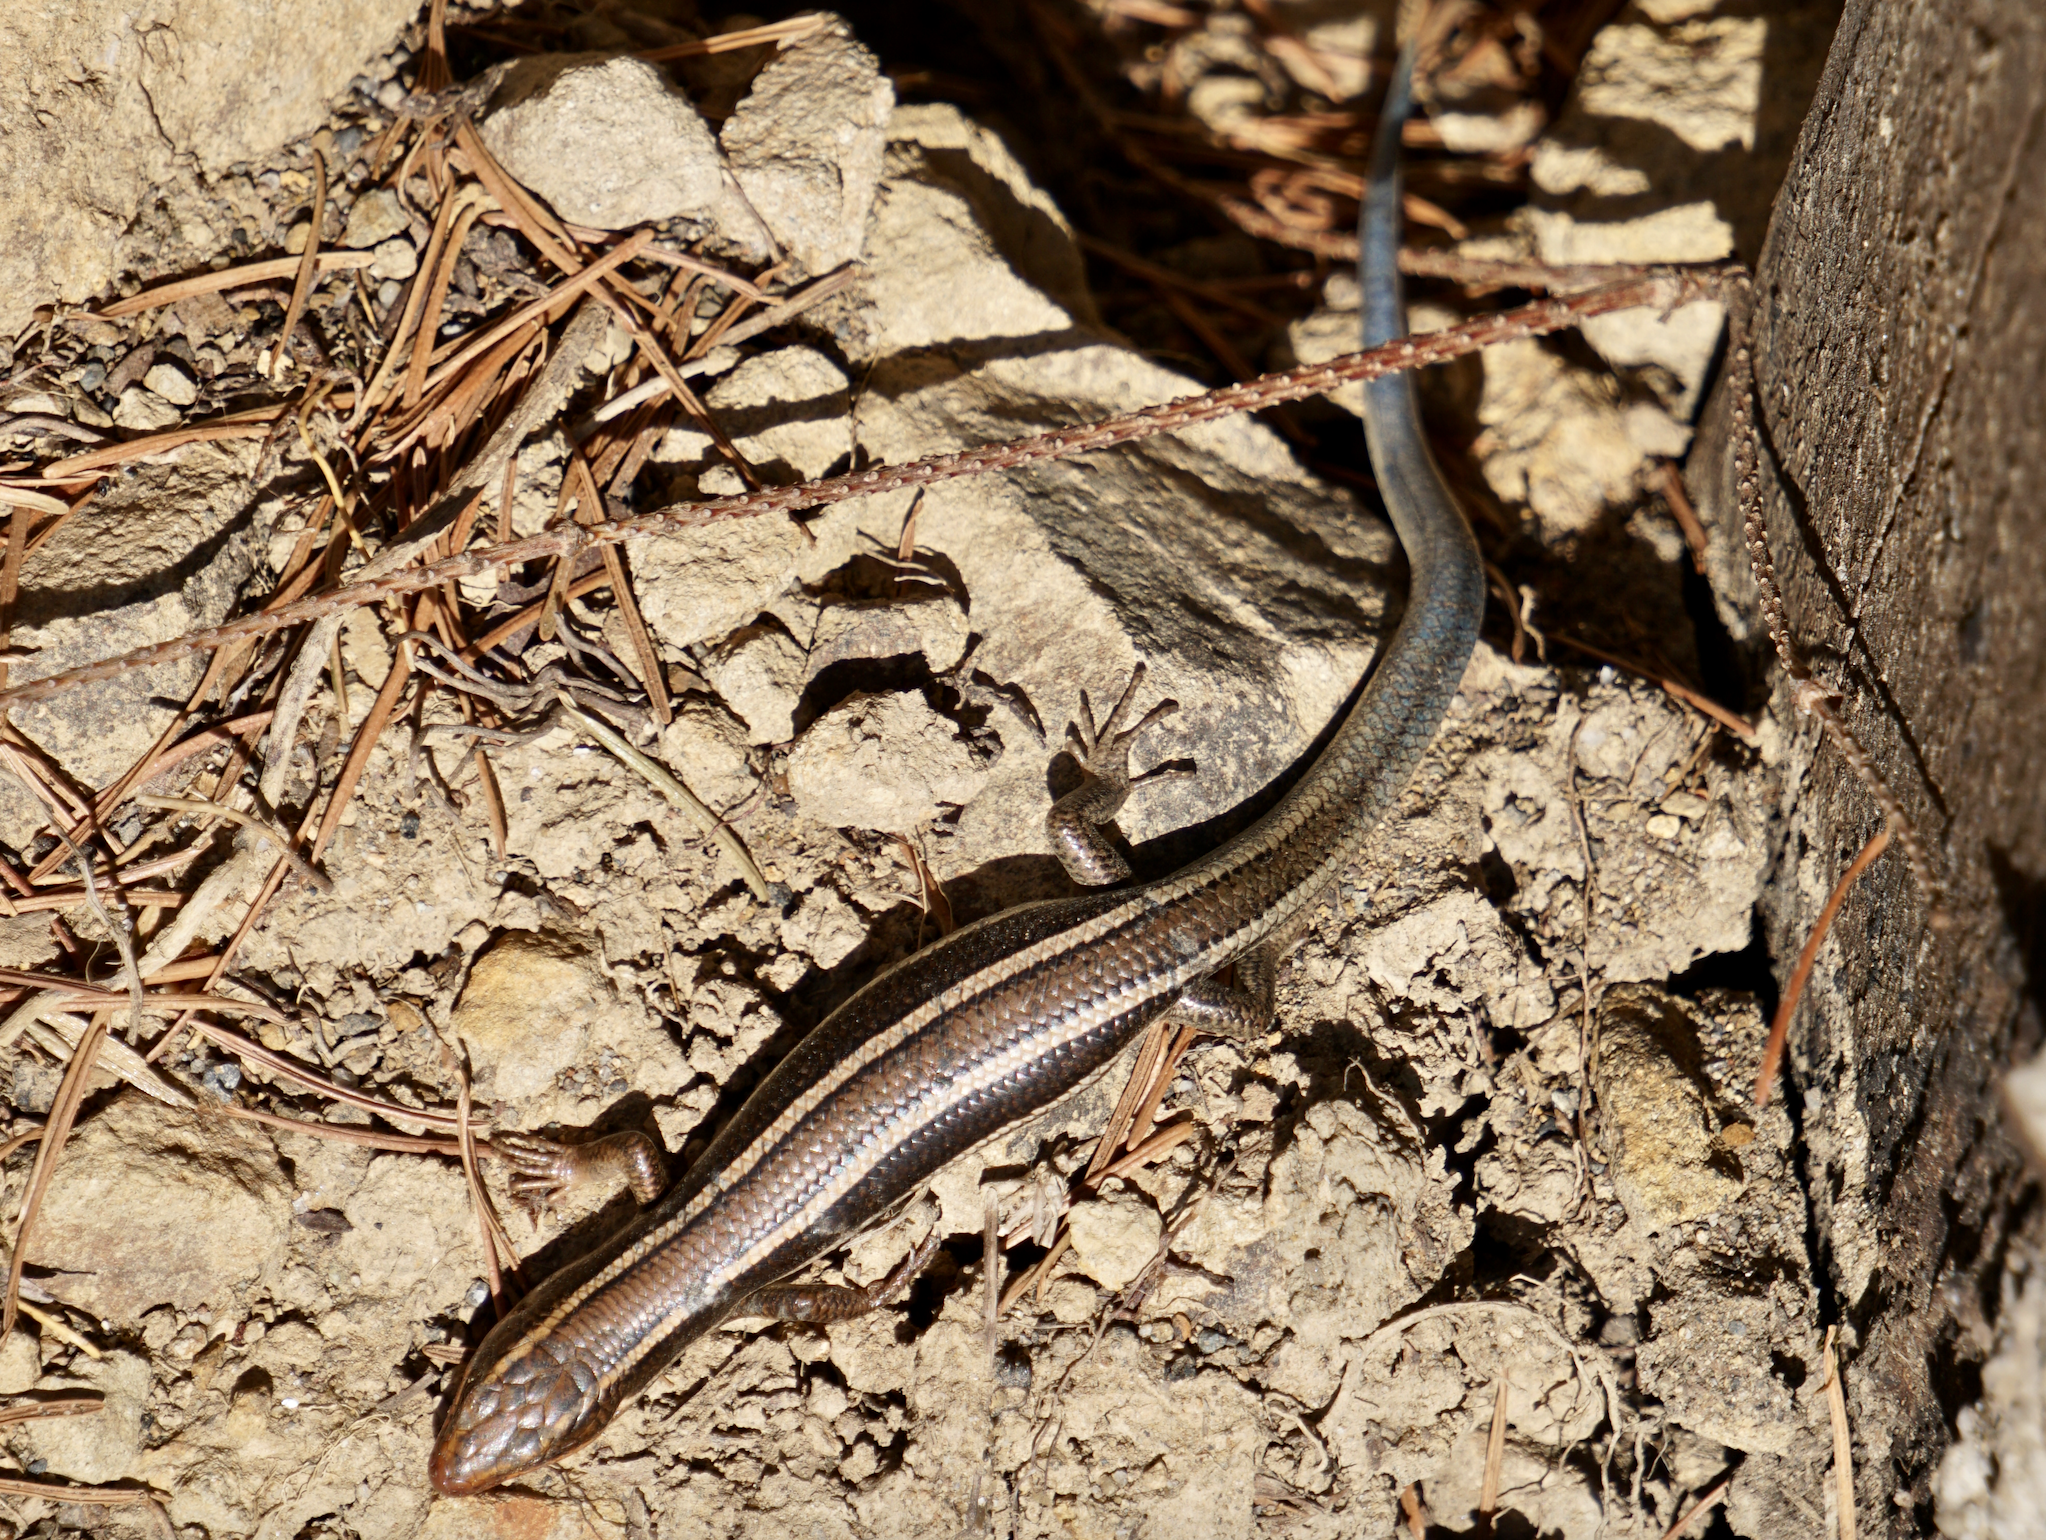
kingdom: Animalia
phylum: Chordata
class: Squamata
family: Scincidae
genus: Plestiodon
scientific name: Plestiodon skiltonianus
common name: Coronado island skink [interparietalis]
